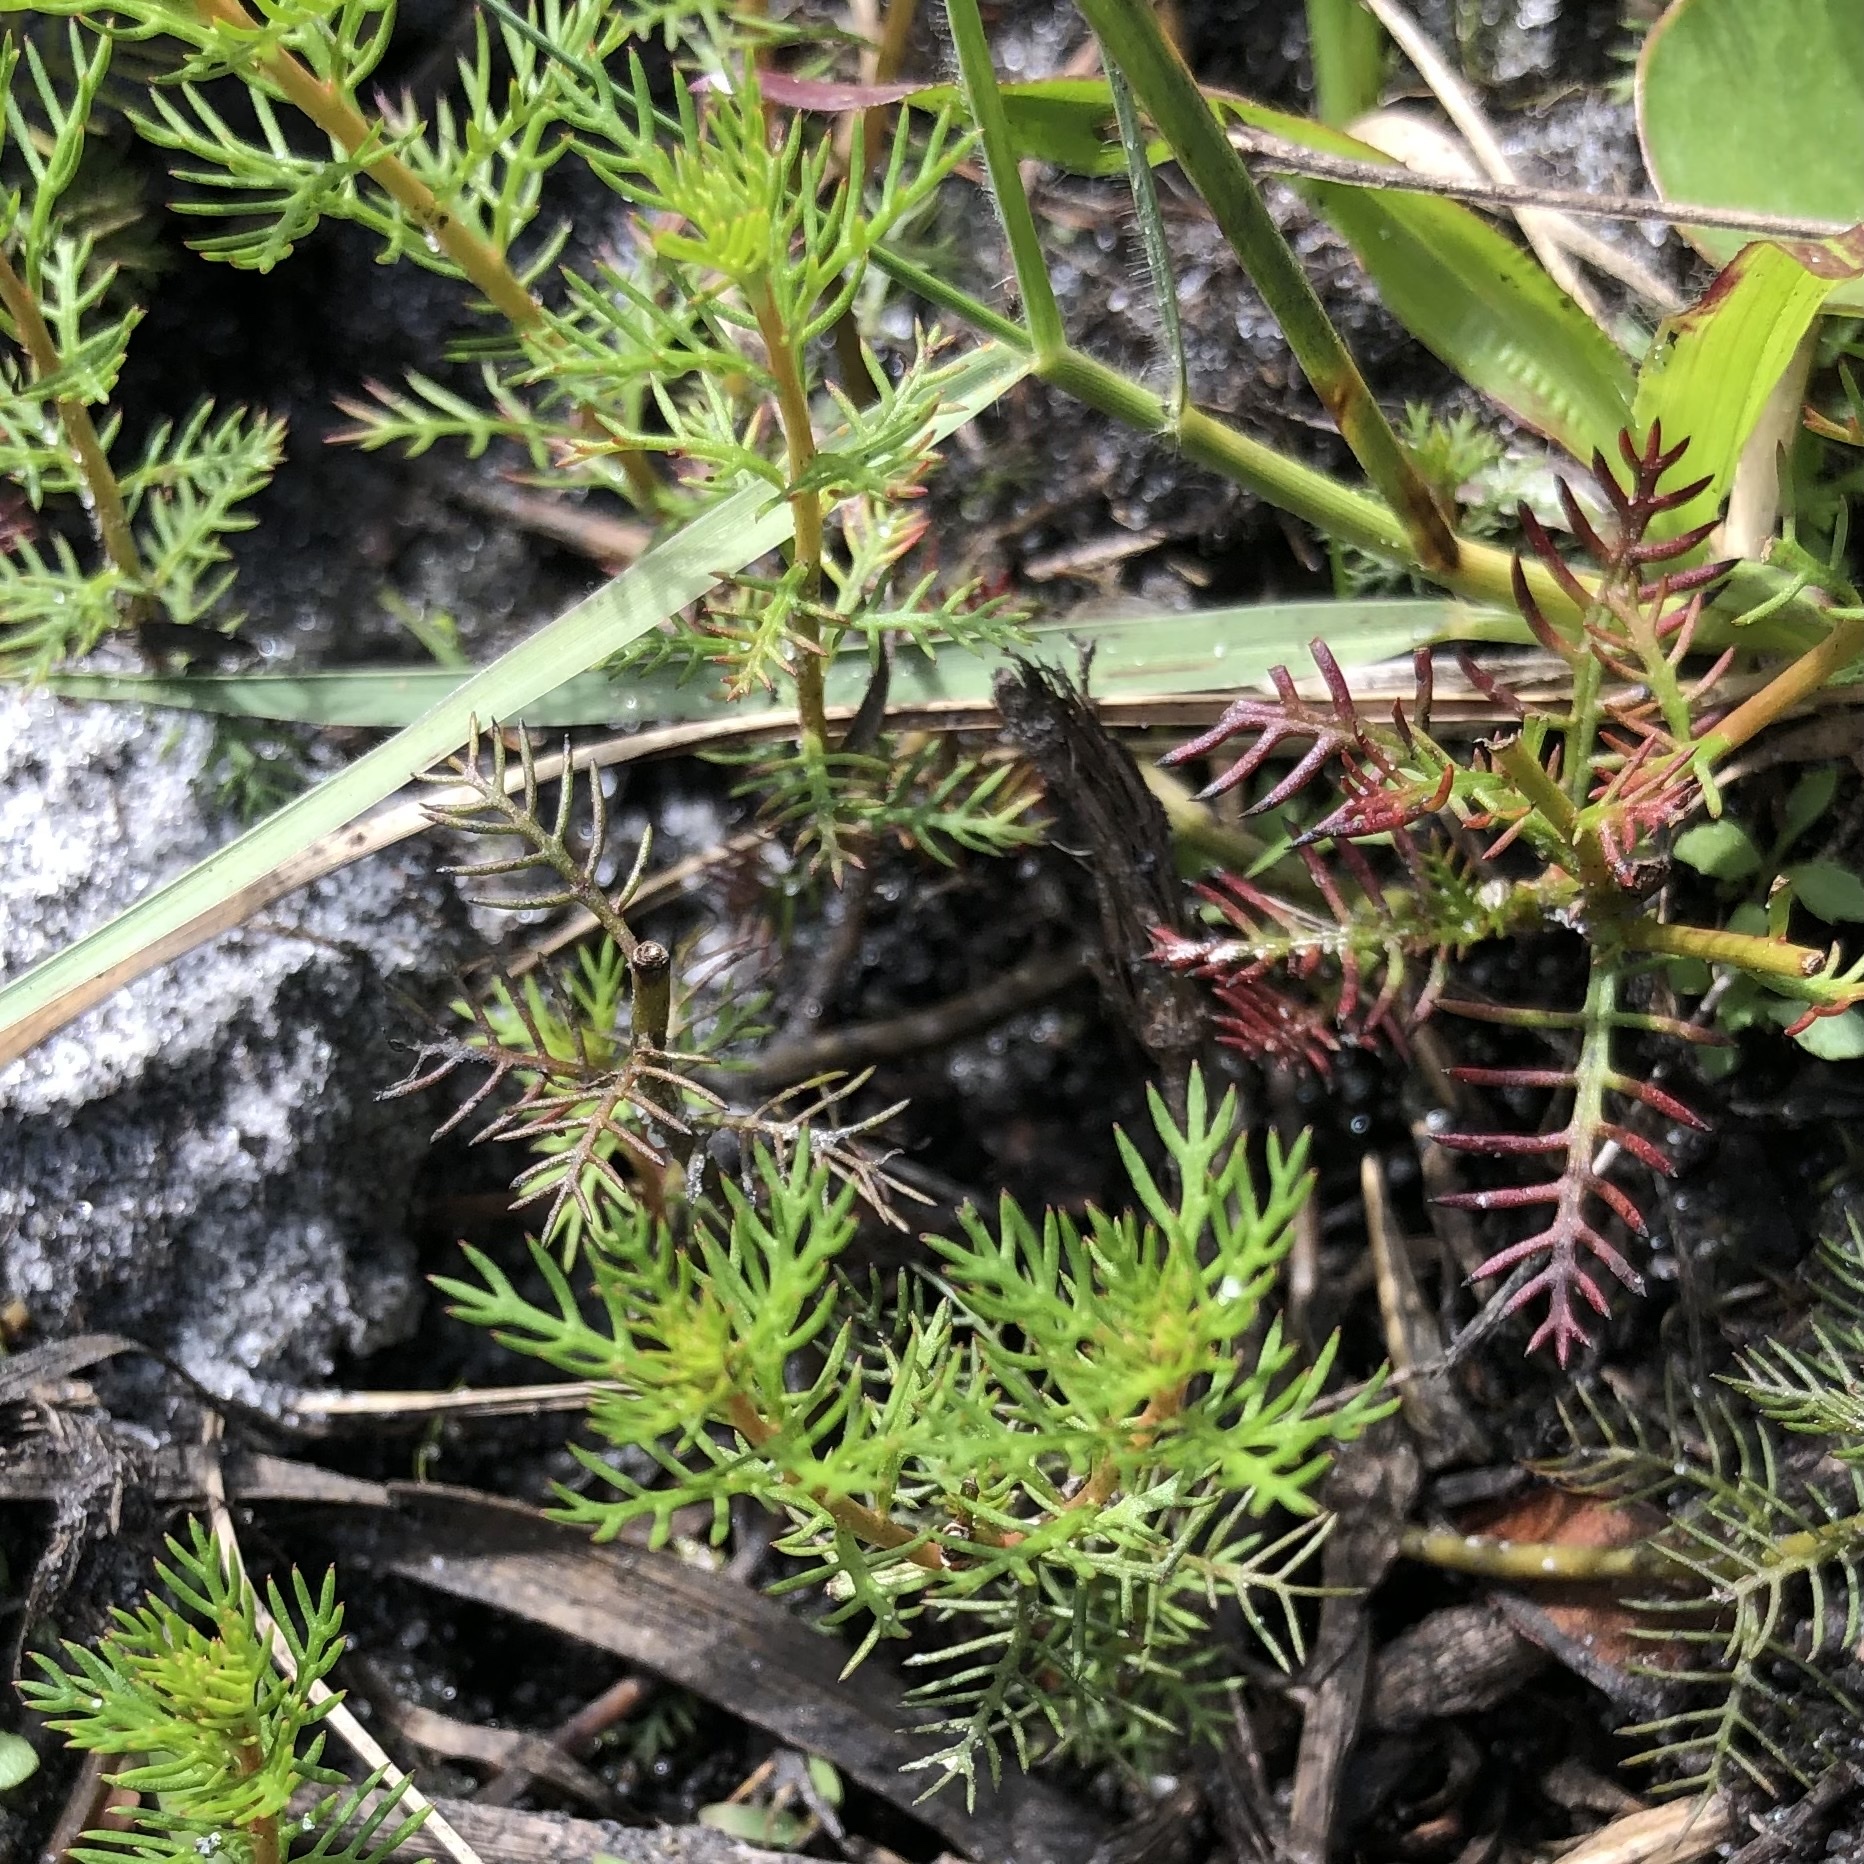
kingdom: Plantae
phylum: Tracheophyta
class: Magnoliopsida
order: Saxifragales
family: Haloragaceae
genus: Proserpinaca
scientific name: Proserpinaca pectinata
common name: Comb-leaved mermaidweed
